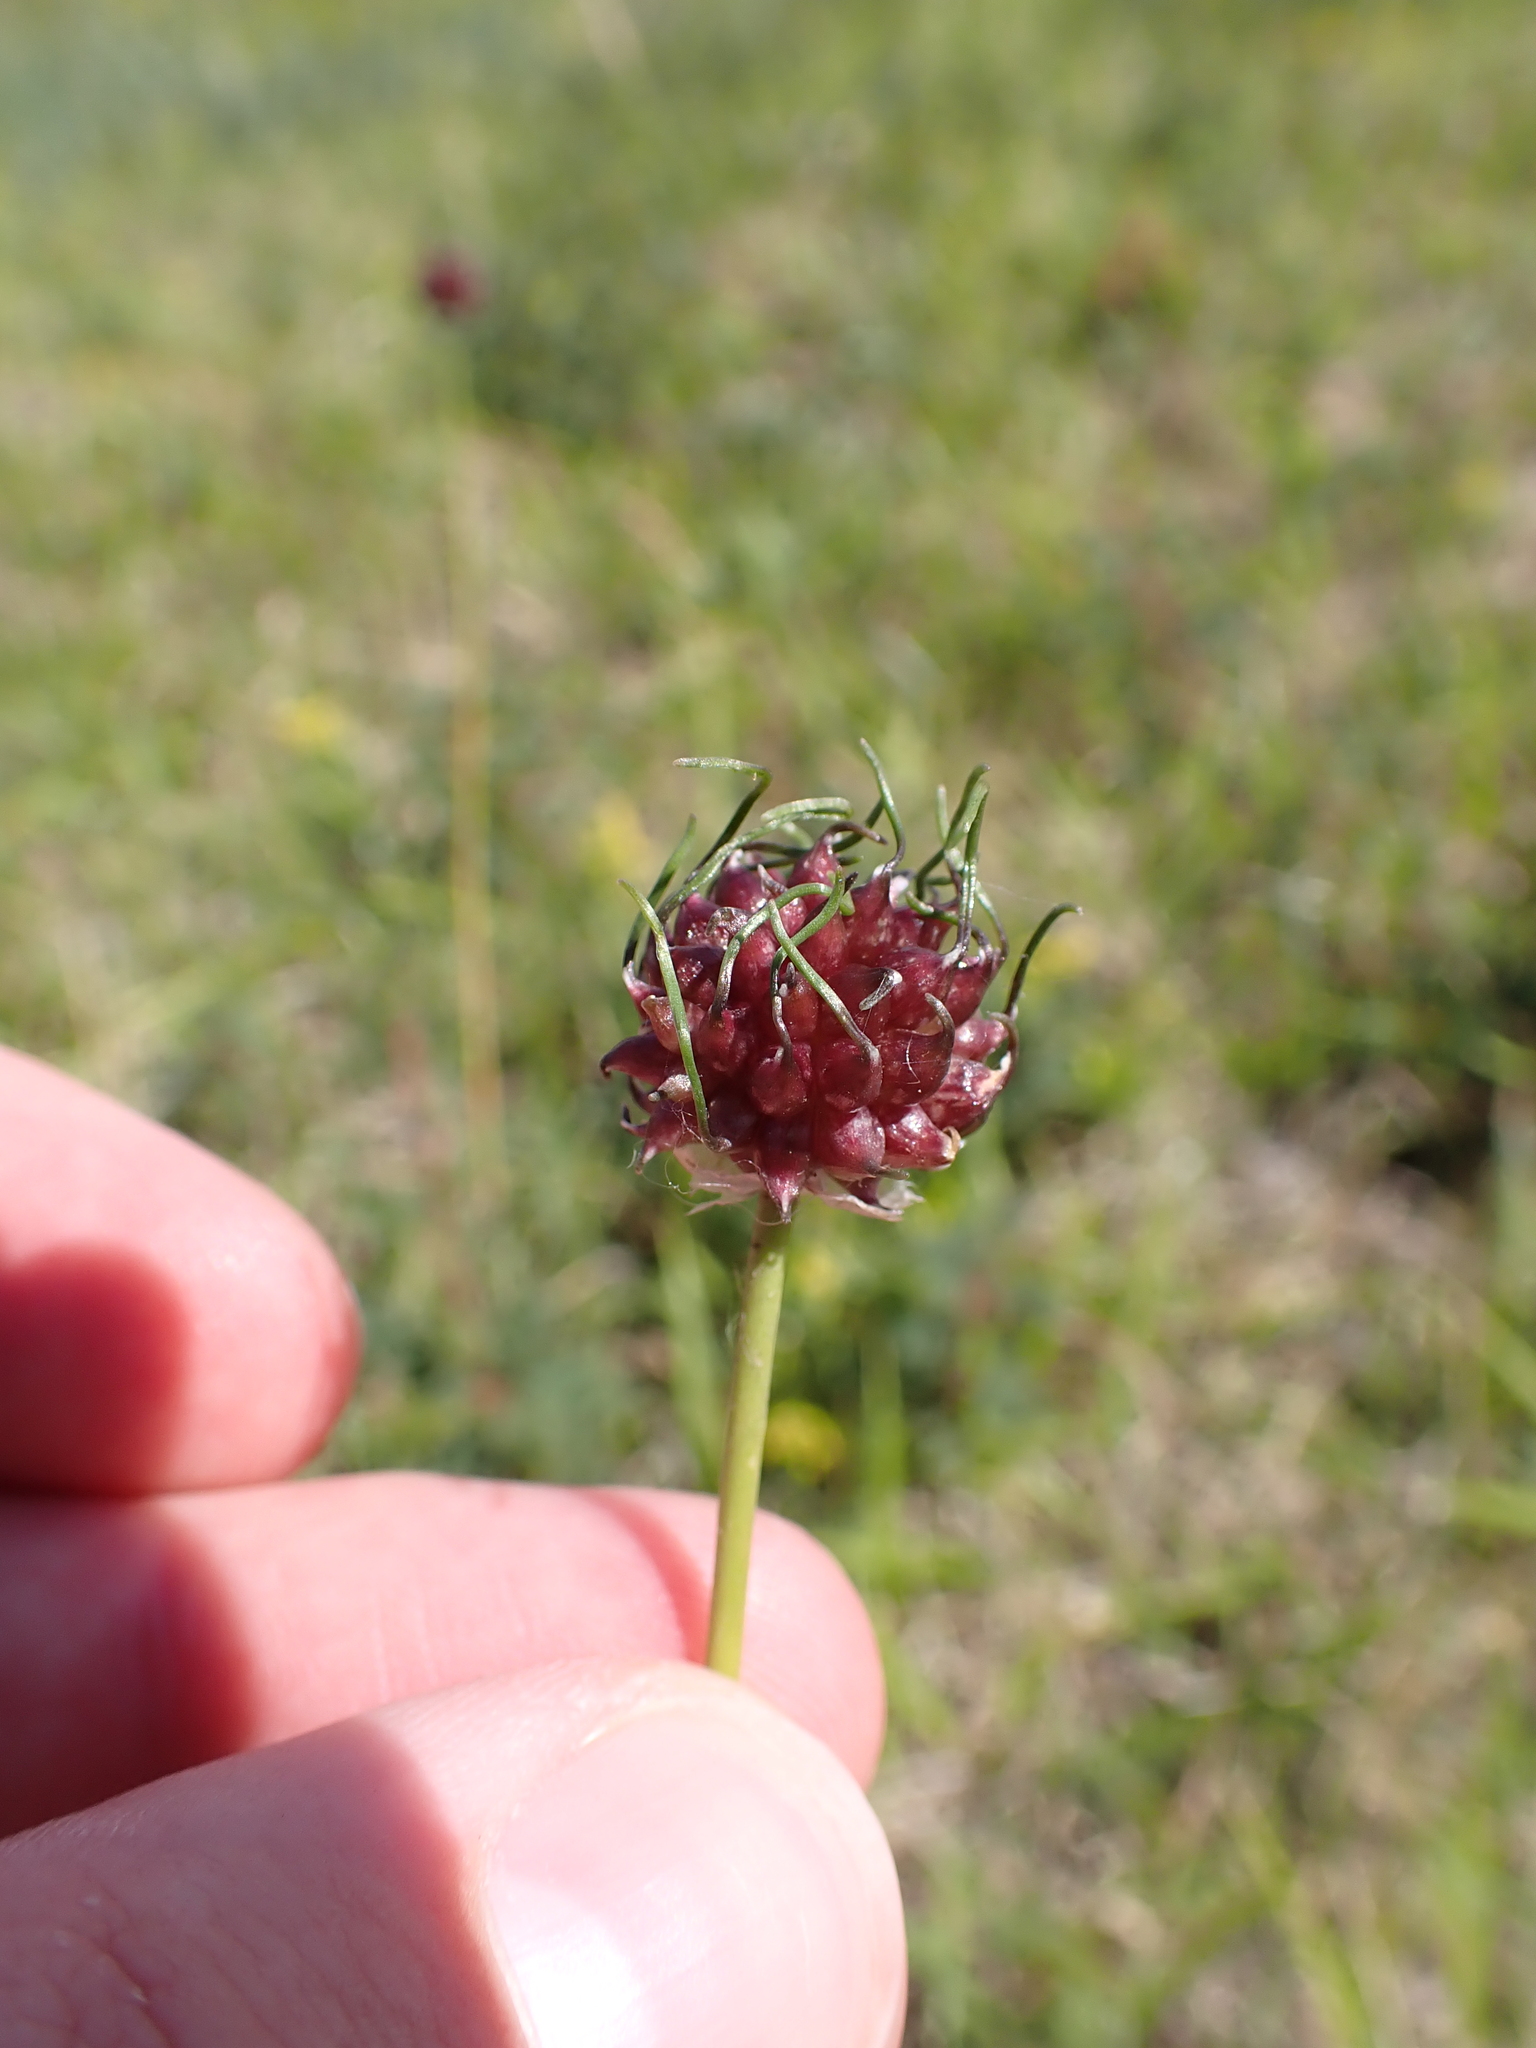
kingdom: Plantae
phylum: Tracheophyta
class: Liliopsida
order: Asparagales
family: Amaryllidaceae
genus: Allium
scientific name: Allium vineale
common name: Crow garlic
